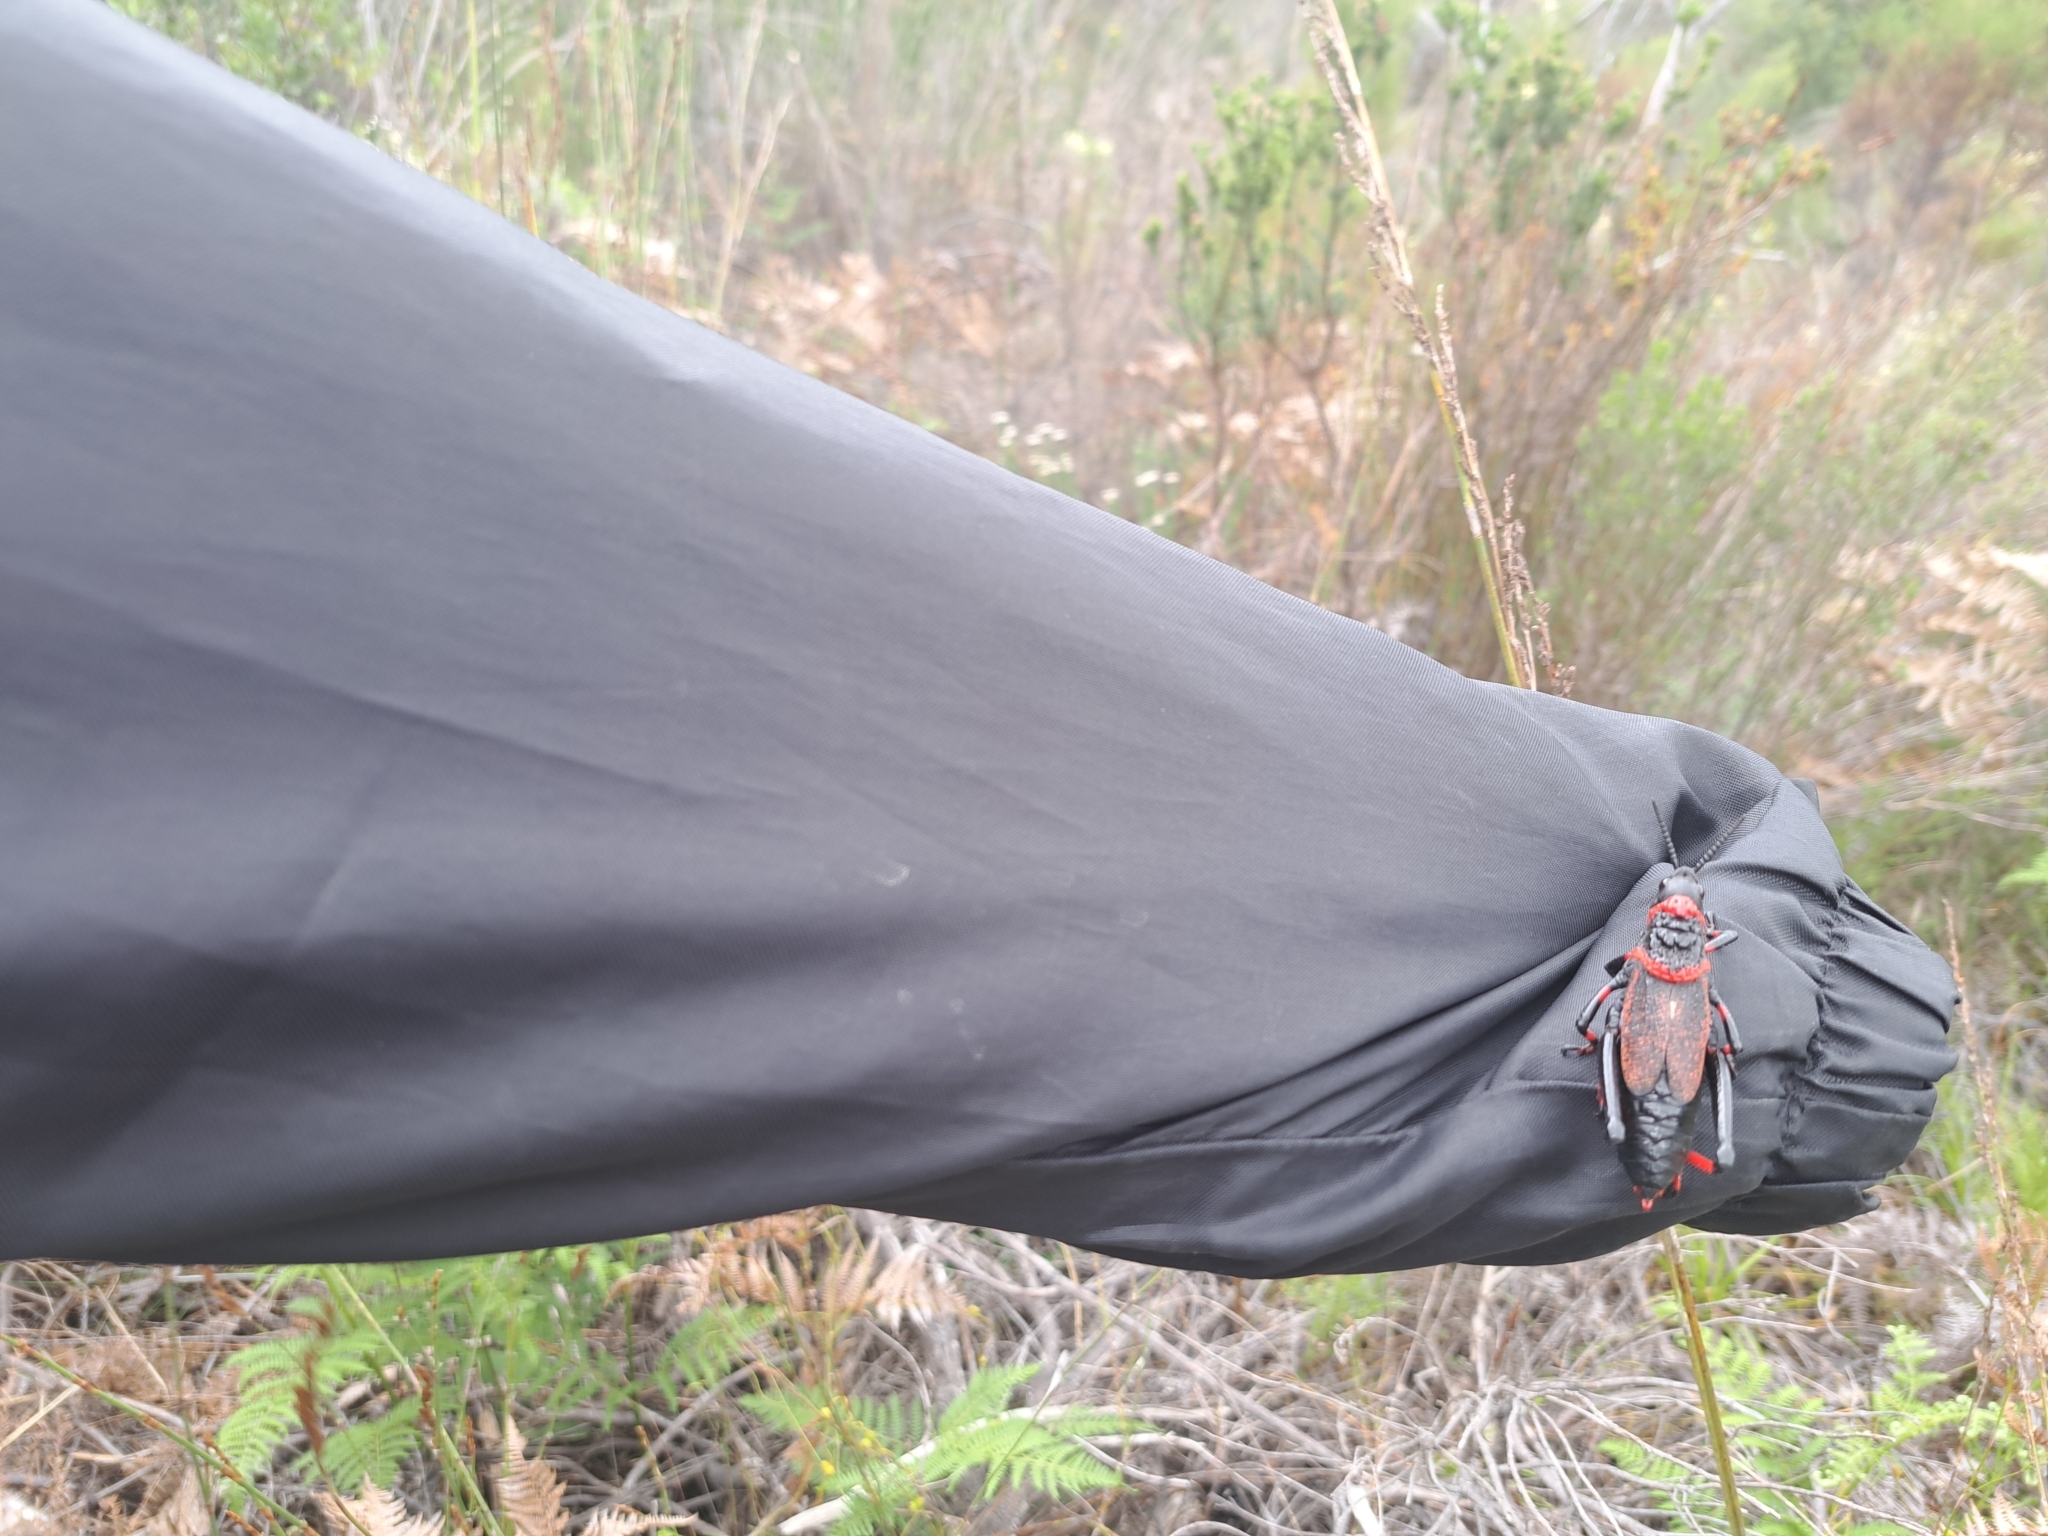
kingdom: Animalia
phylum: Arthropoda
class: Insecta
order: Orthoptera
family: Pyrgomorphidae
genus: Dictyophorus
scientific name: Dictyophorus spumans
